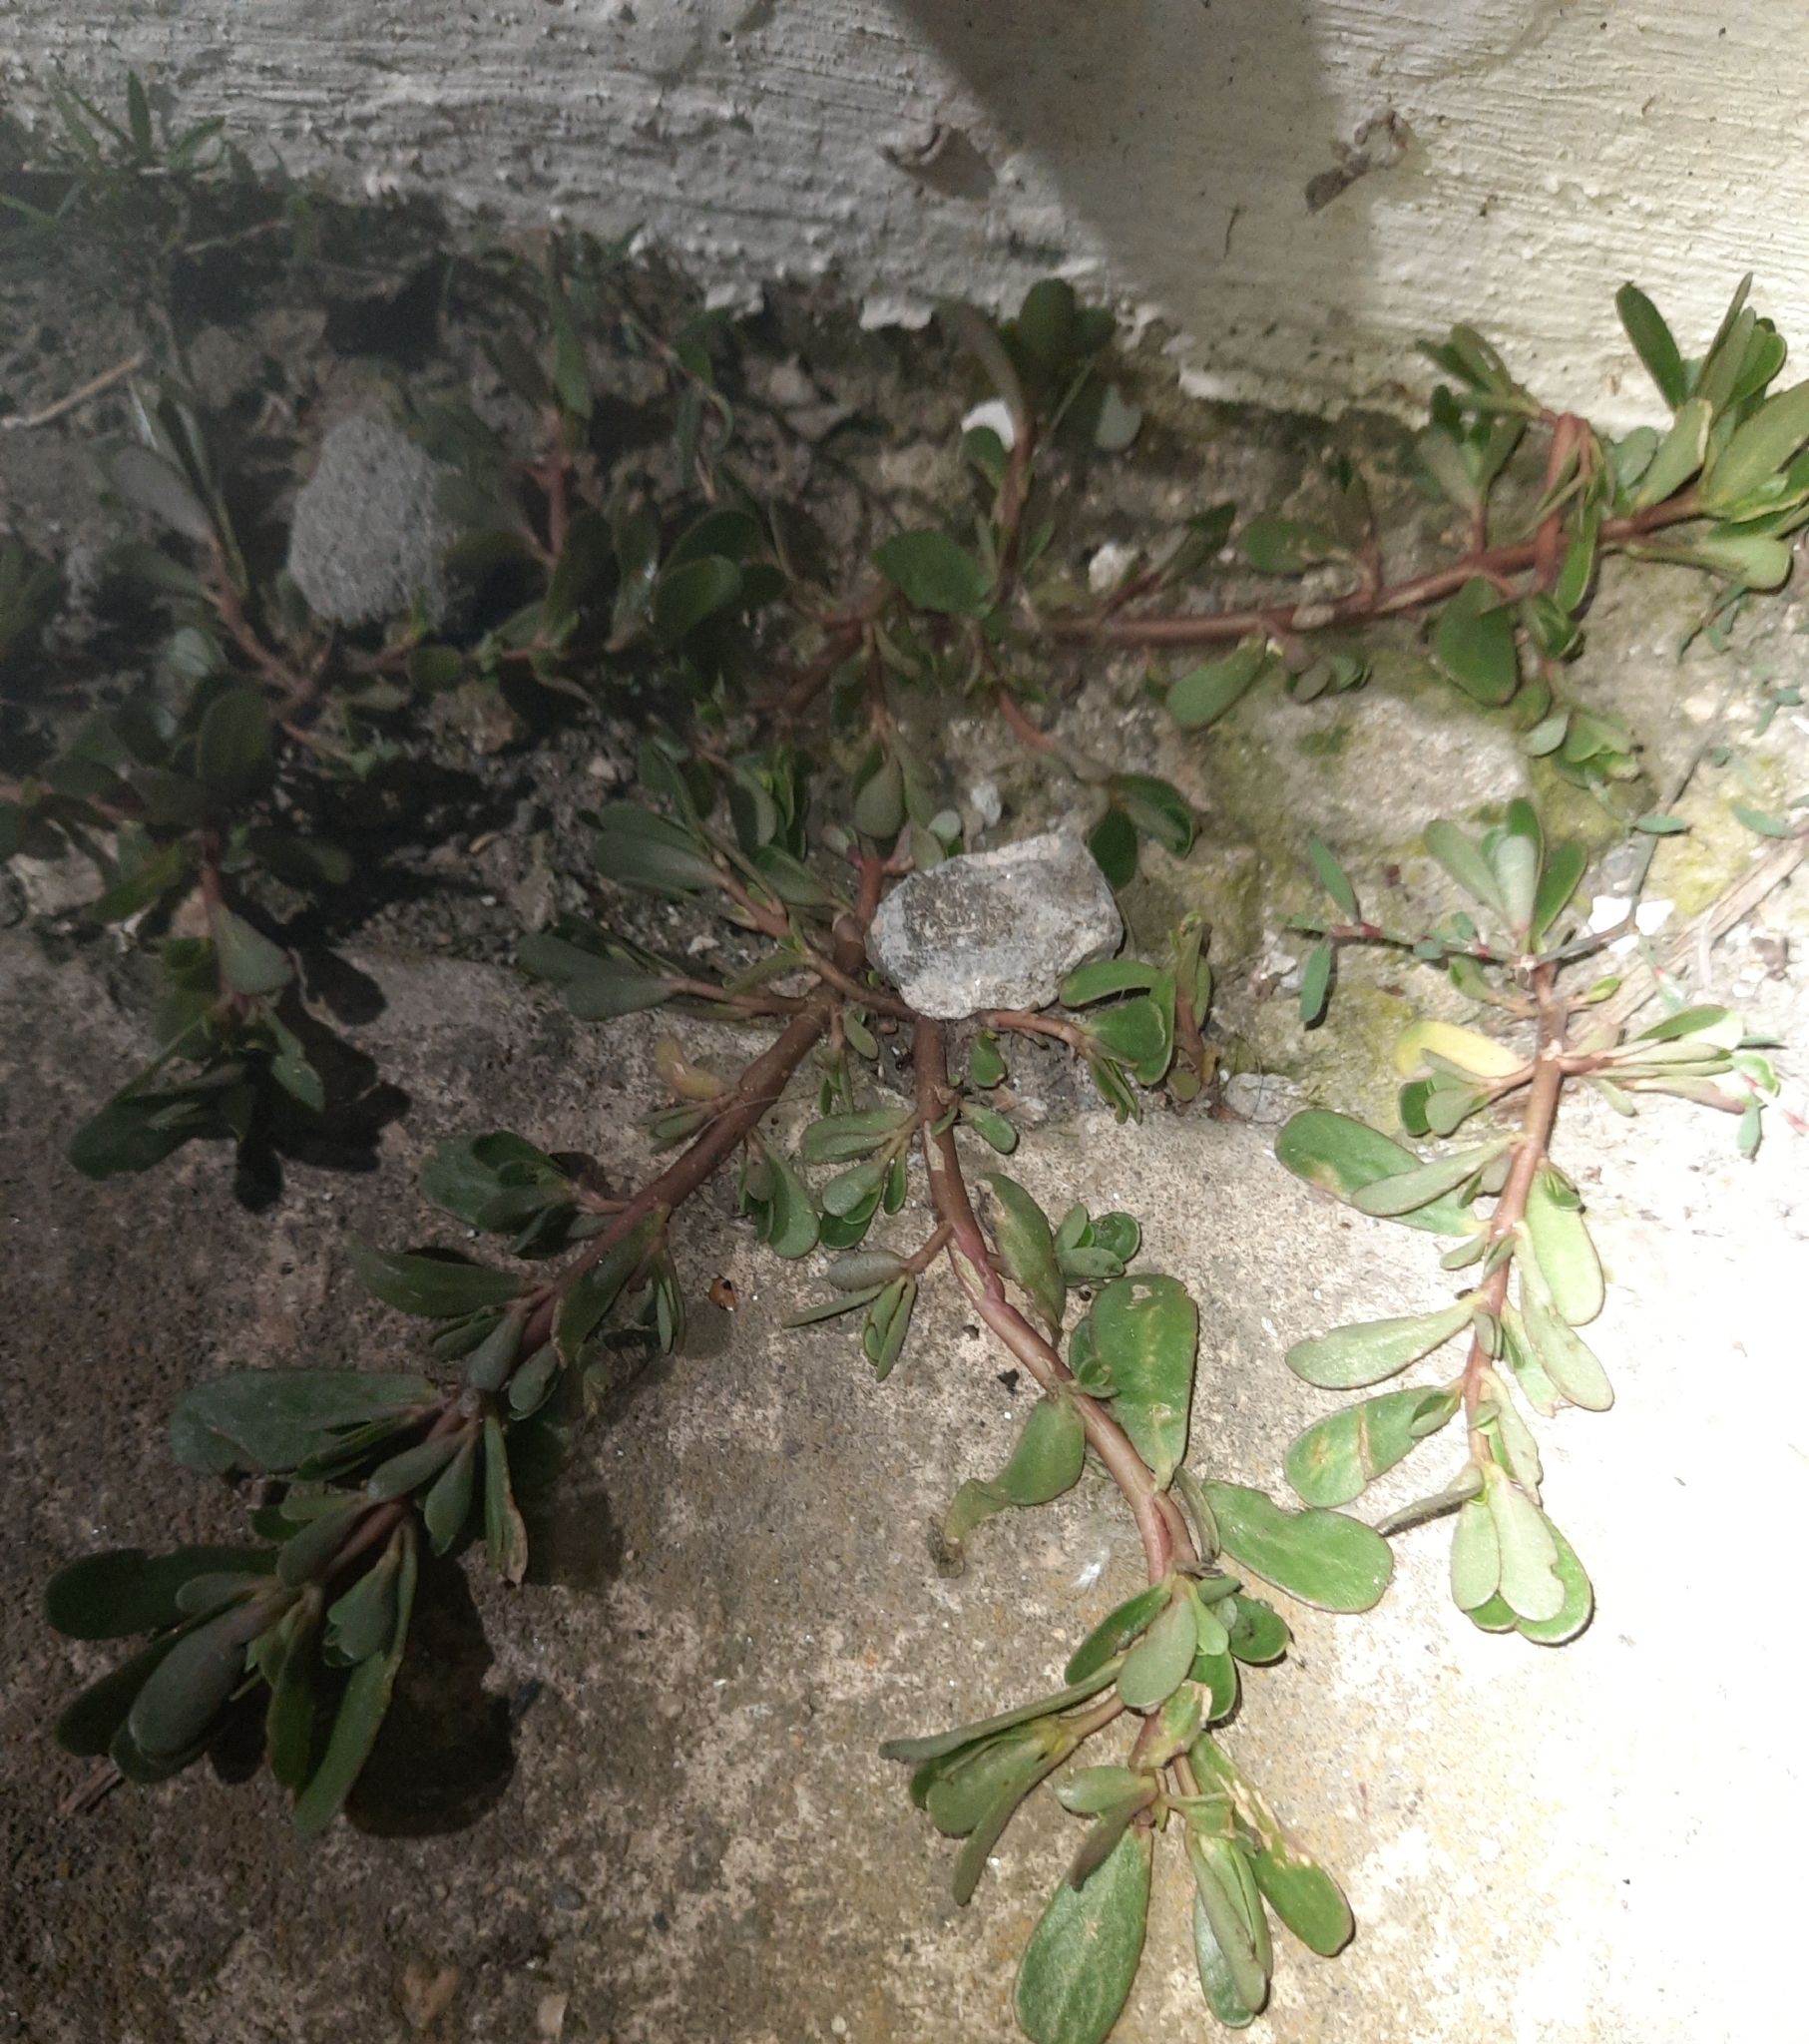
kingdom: Plantae
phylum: Tracheophyta
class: Magnoliopsida
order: Caryophyllales
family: Portulacaceae
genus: Portulaca
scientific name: Portulaca oleracea
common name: Common purslane
